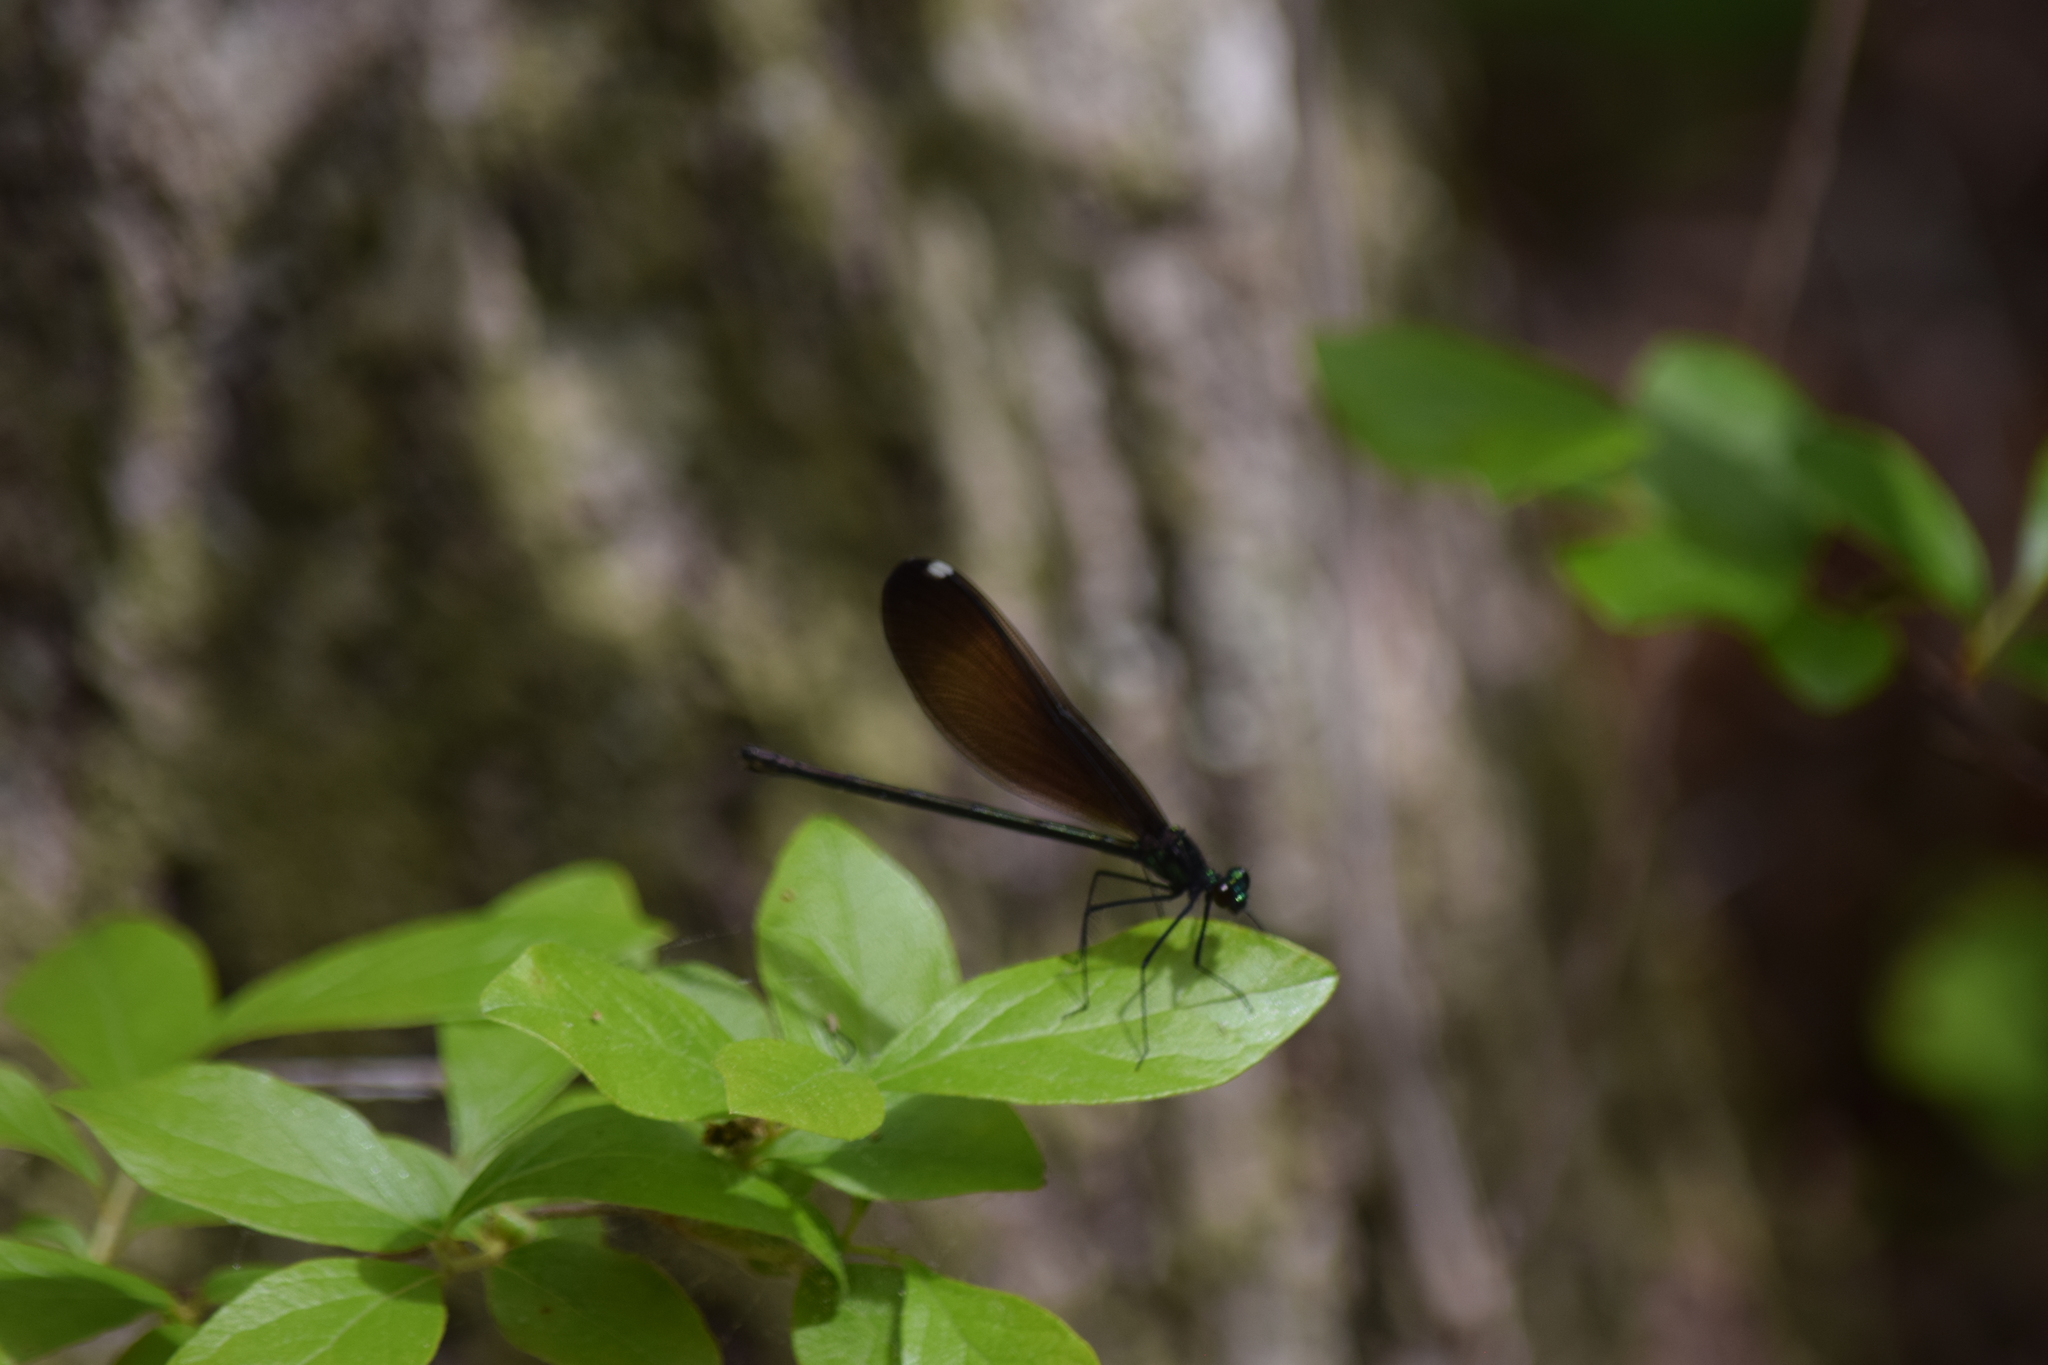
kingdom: Animalia
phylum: Arthropoda
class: Insecta
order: Odonata
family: Calopterygidae
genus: Calopteryx
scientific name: Calopteryx maculata
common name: Ebony jewelwing
